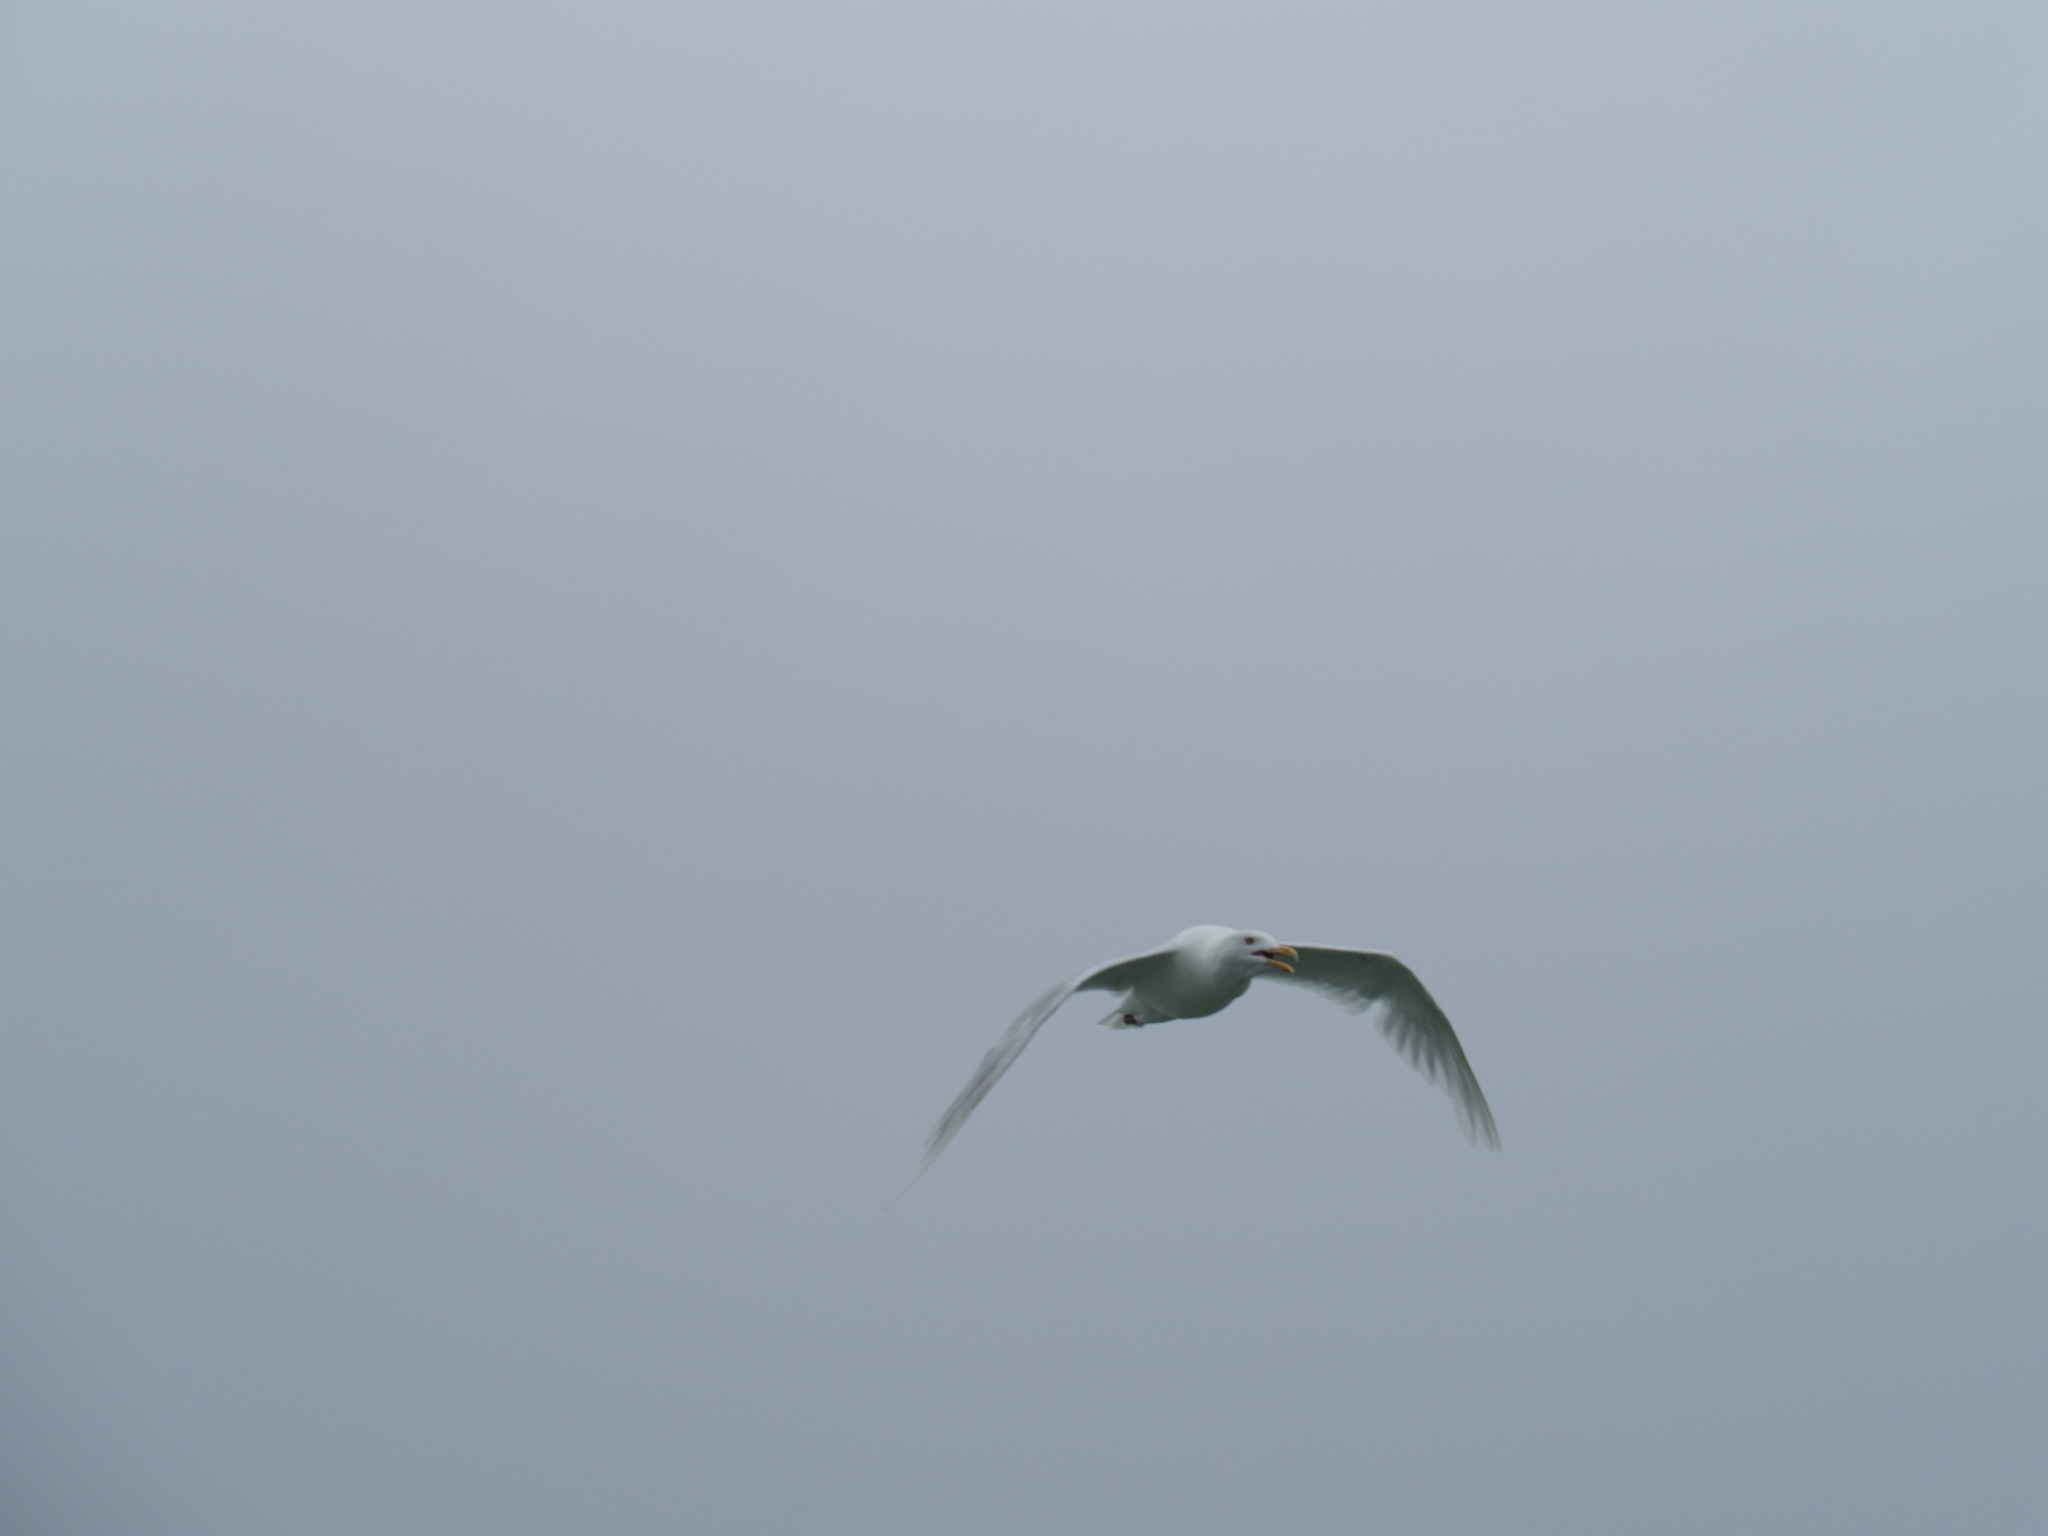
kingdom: Animalia
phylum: Chordata
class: Aves
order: Charadriiformes
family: Laridae
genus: Larus
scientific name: Larus hyperboreus
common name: Glaucous gull
